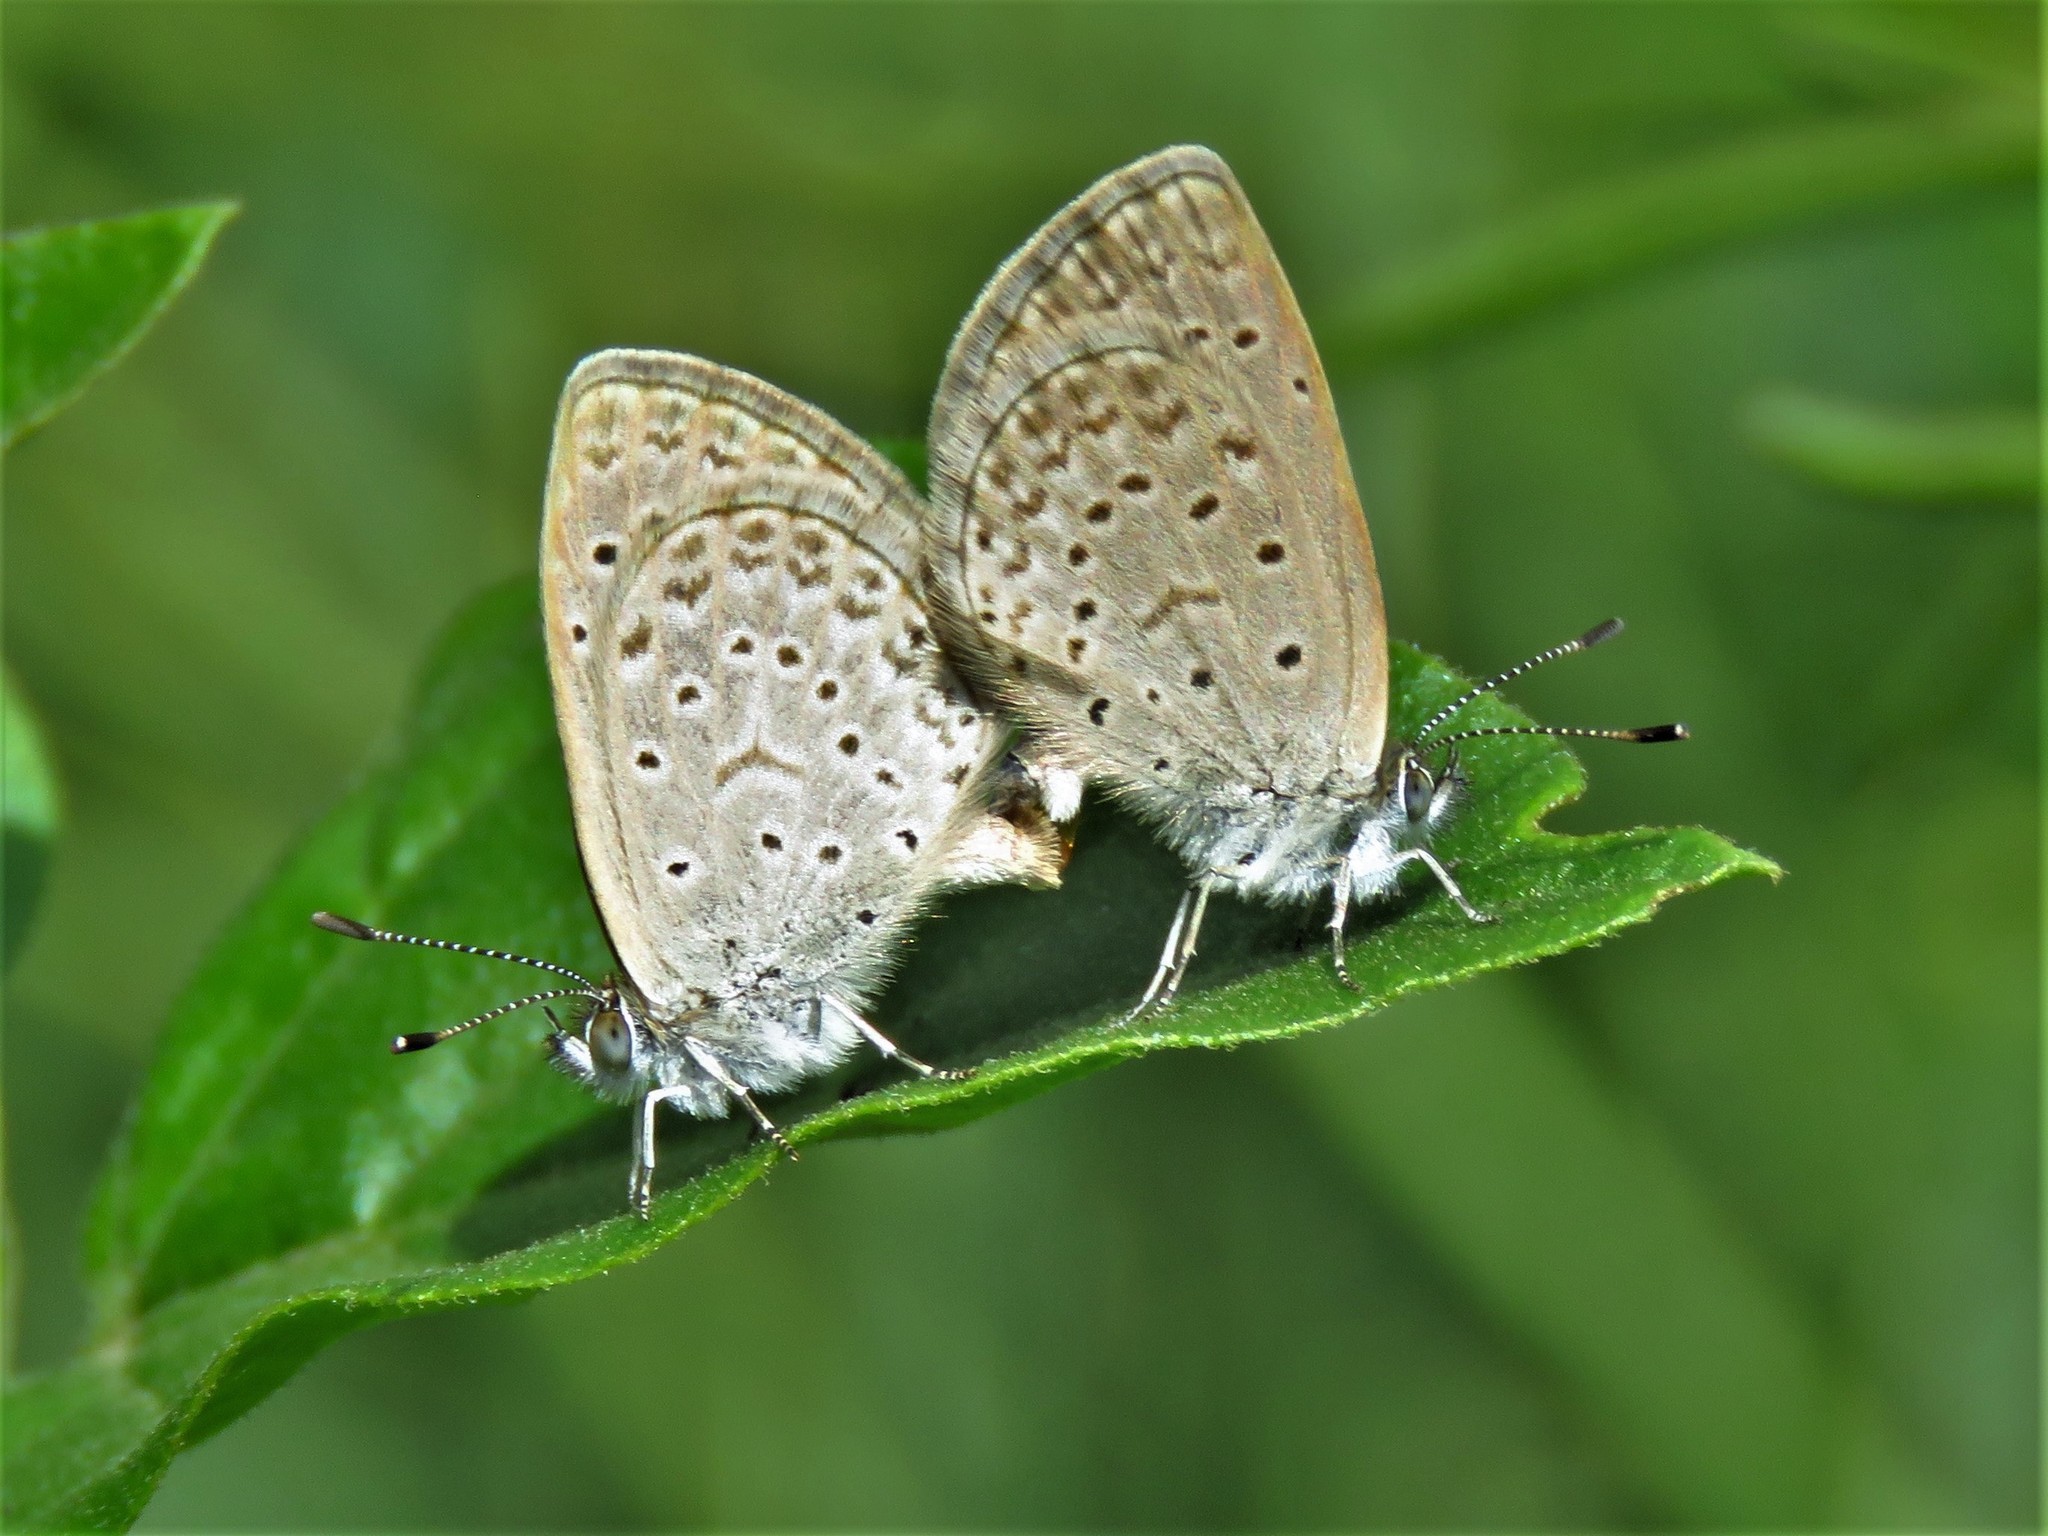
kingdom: Animalia
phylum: Arthropoda
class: Insecta
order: Lepidoptera
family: Lycaenidae
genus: Zizeeria
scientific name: Zizeeria knysna
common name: African grass blue
